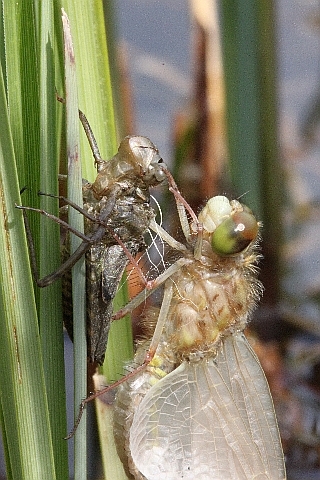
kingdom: Animalia
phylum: Arthropoda
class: Insecta
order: Odonata
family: Libellulidae
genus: Libellula
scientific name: Libellula quadrimaculata
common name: Four-spotted chaser
